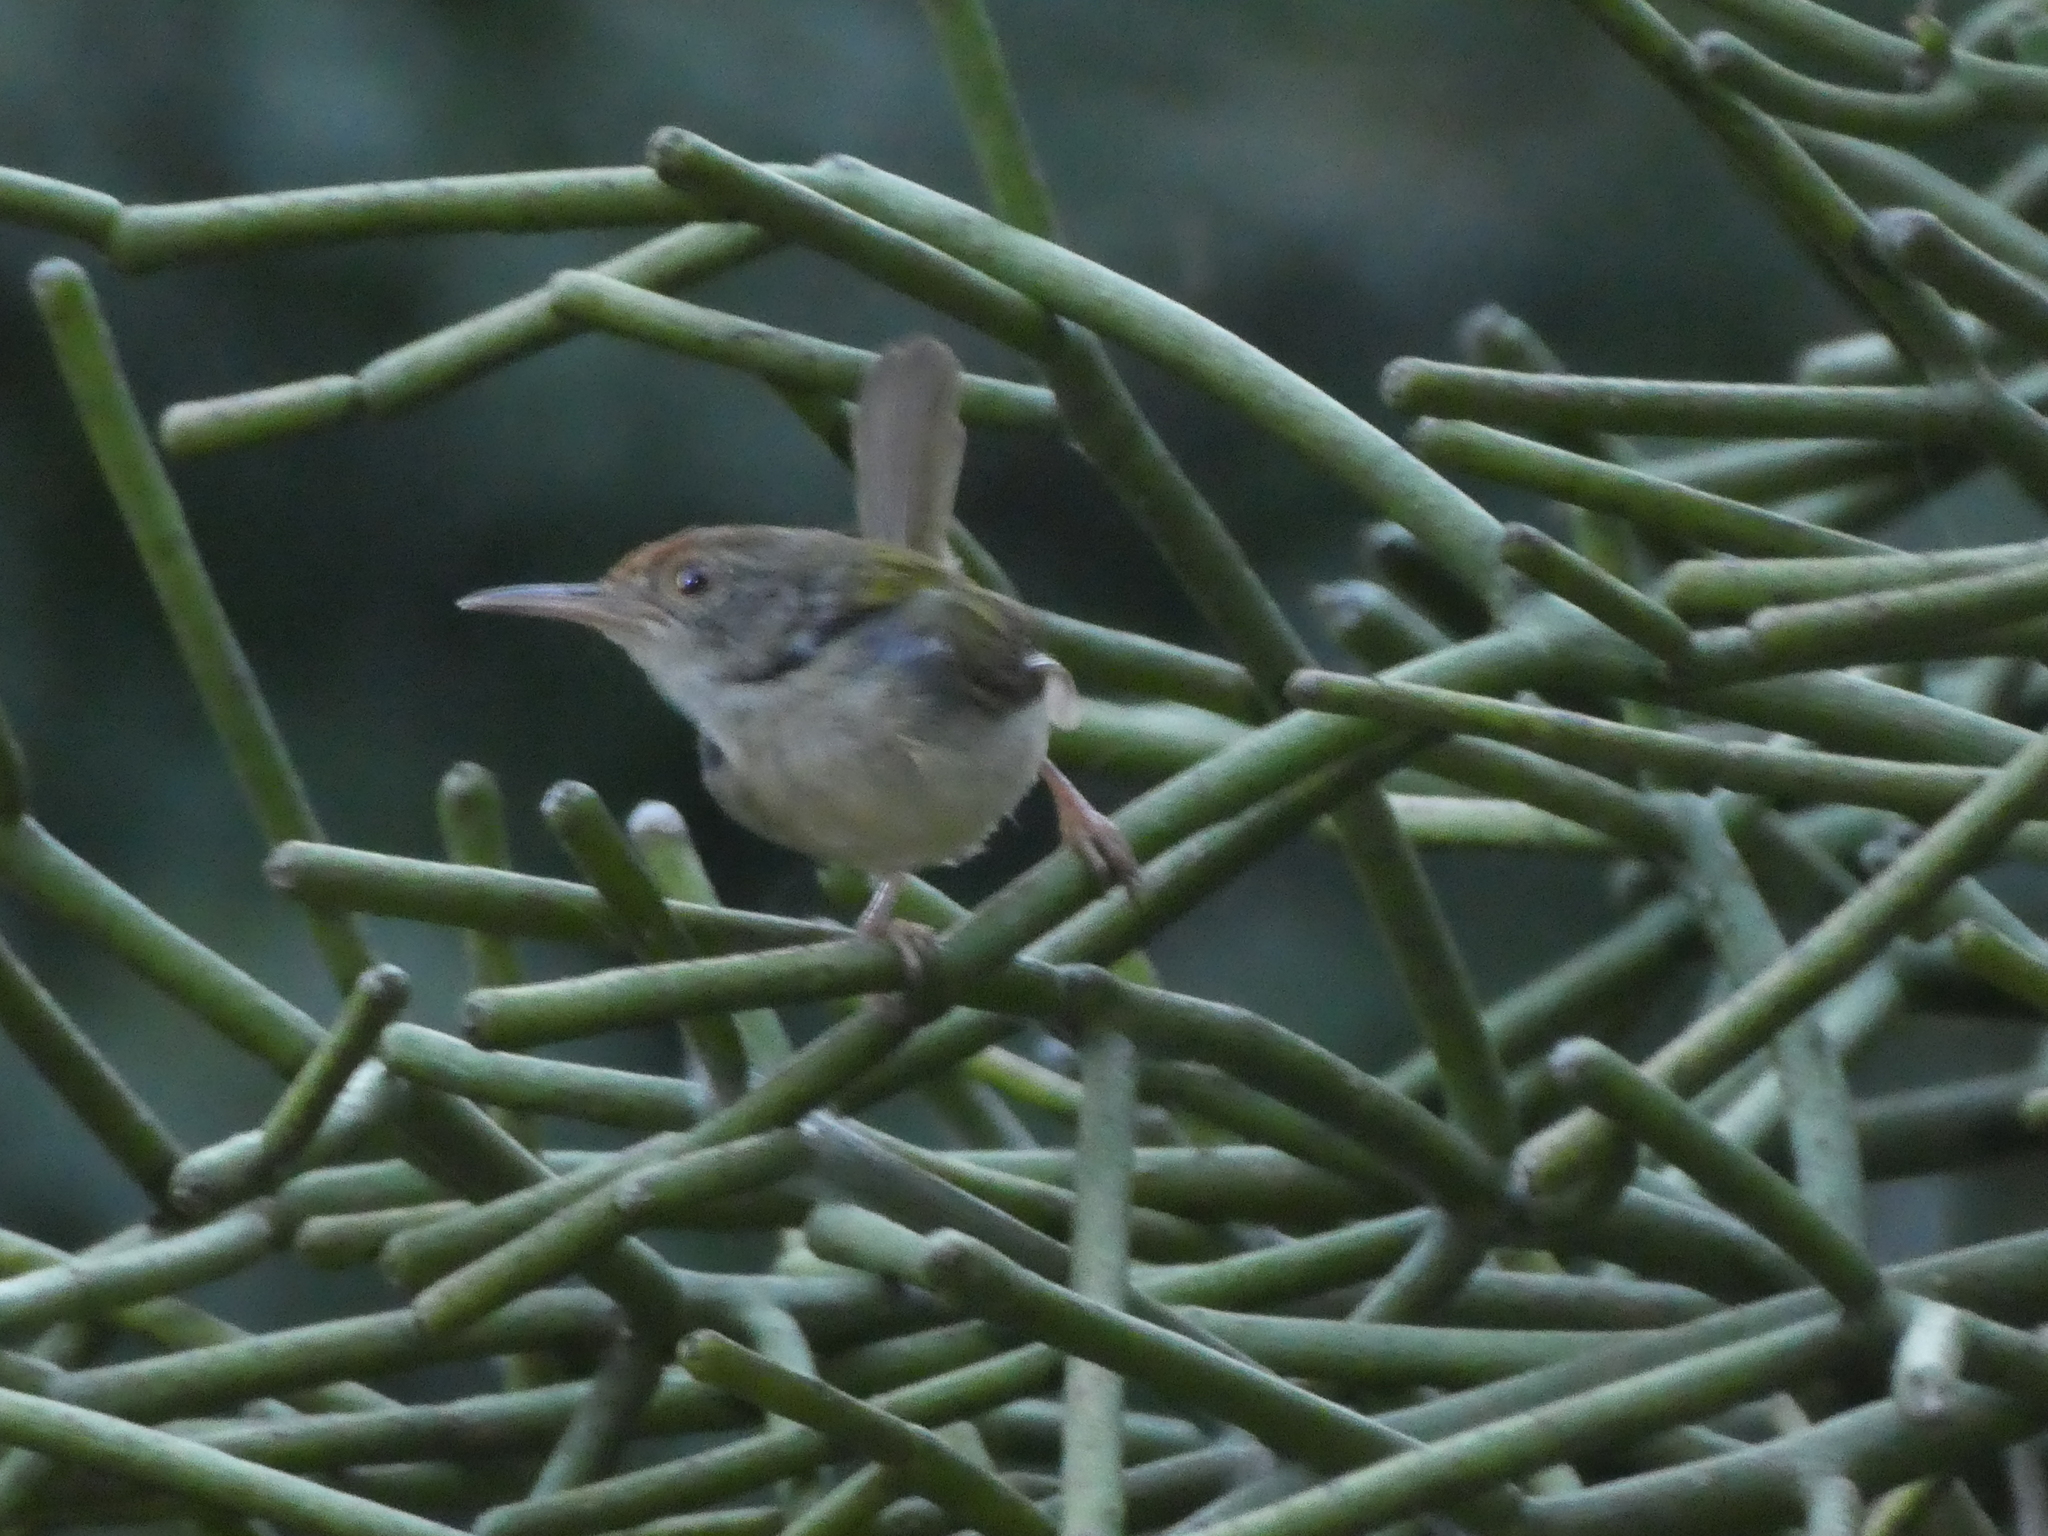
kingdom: Animalia
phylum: Chordata
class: Aves
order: Passeriformes
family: Cisticolidae
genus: Orthotomus
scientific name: Orthotomus sutorius
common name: Common tailorbird
